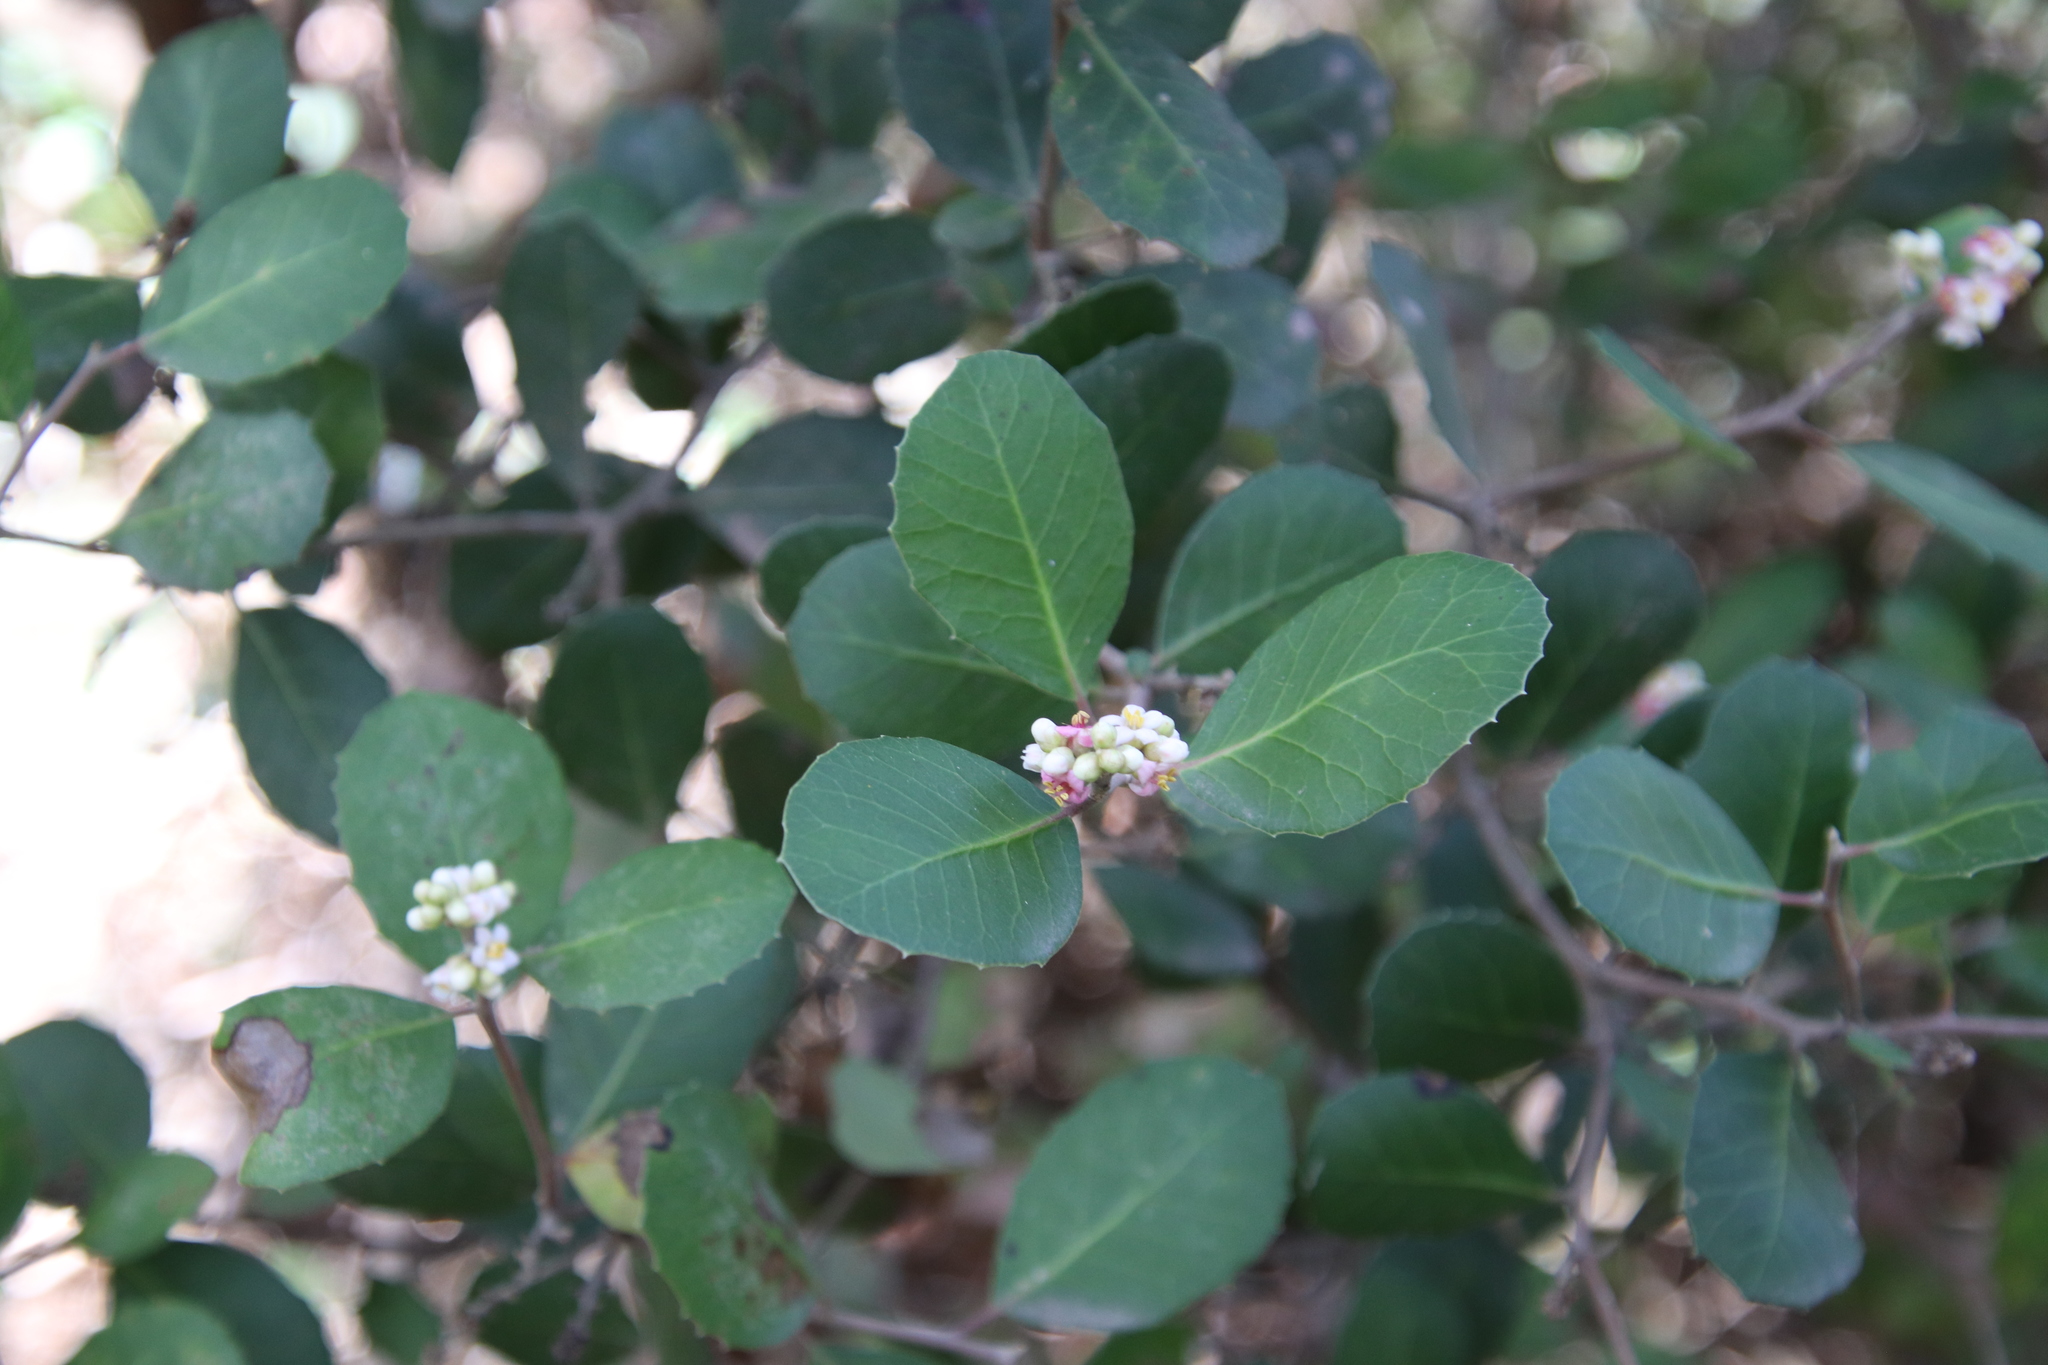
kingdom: Plantae
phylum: Tracheophyta
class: Magnoliopsida
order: Sapindales
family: Anacardiaceae
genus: Rhus
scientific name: Rhus integrifolia
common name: Lemonade sumac
